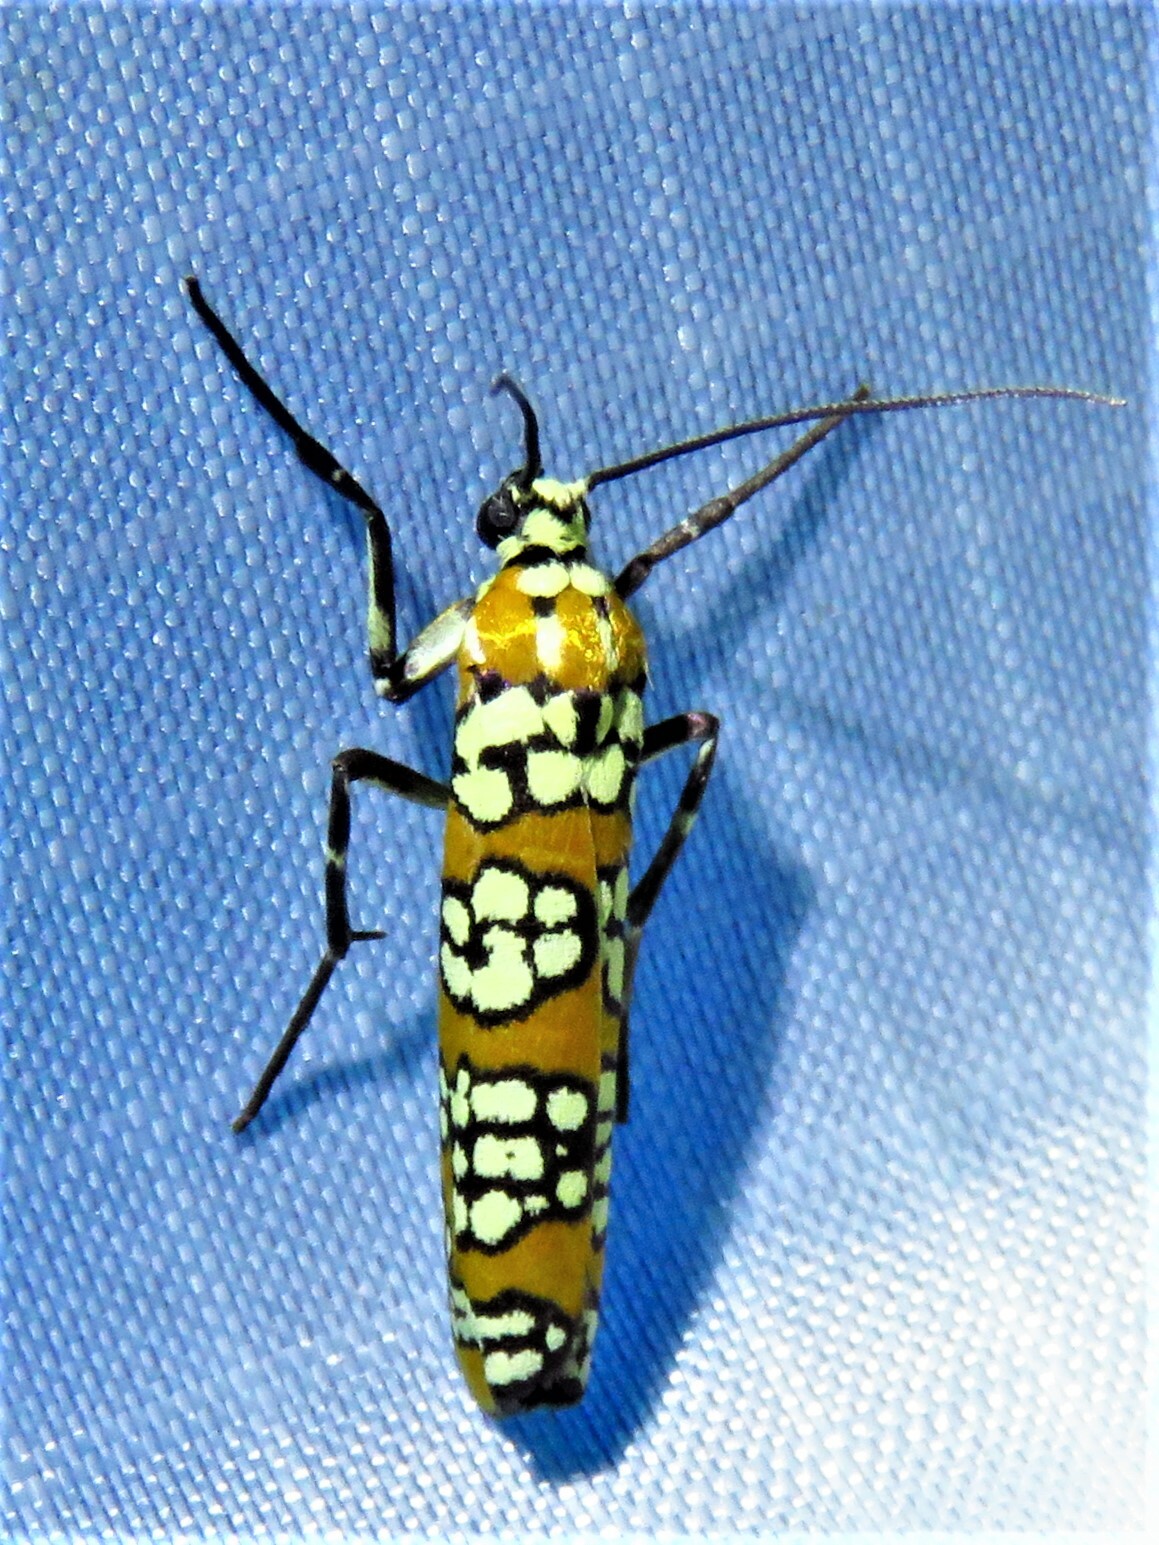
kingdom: Animalia
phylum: Arthropoda
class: Insecta
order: Lepidoptera
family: Attevidae
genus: Atteva
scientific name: Atteva punctella
